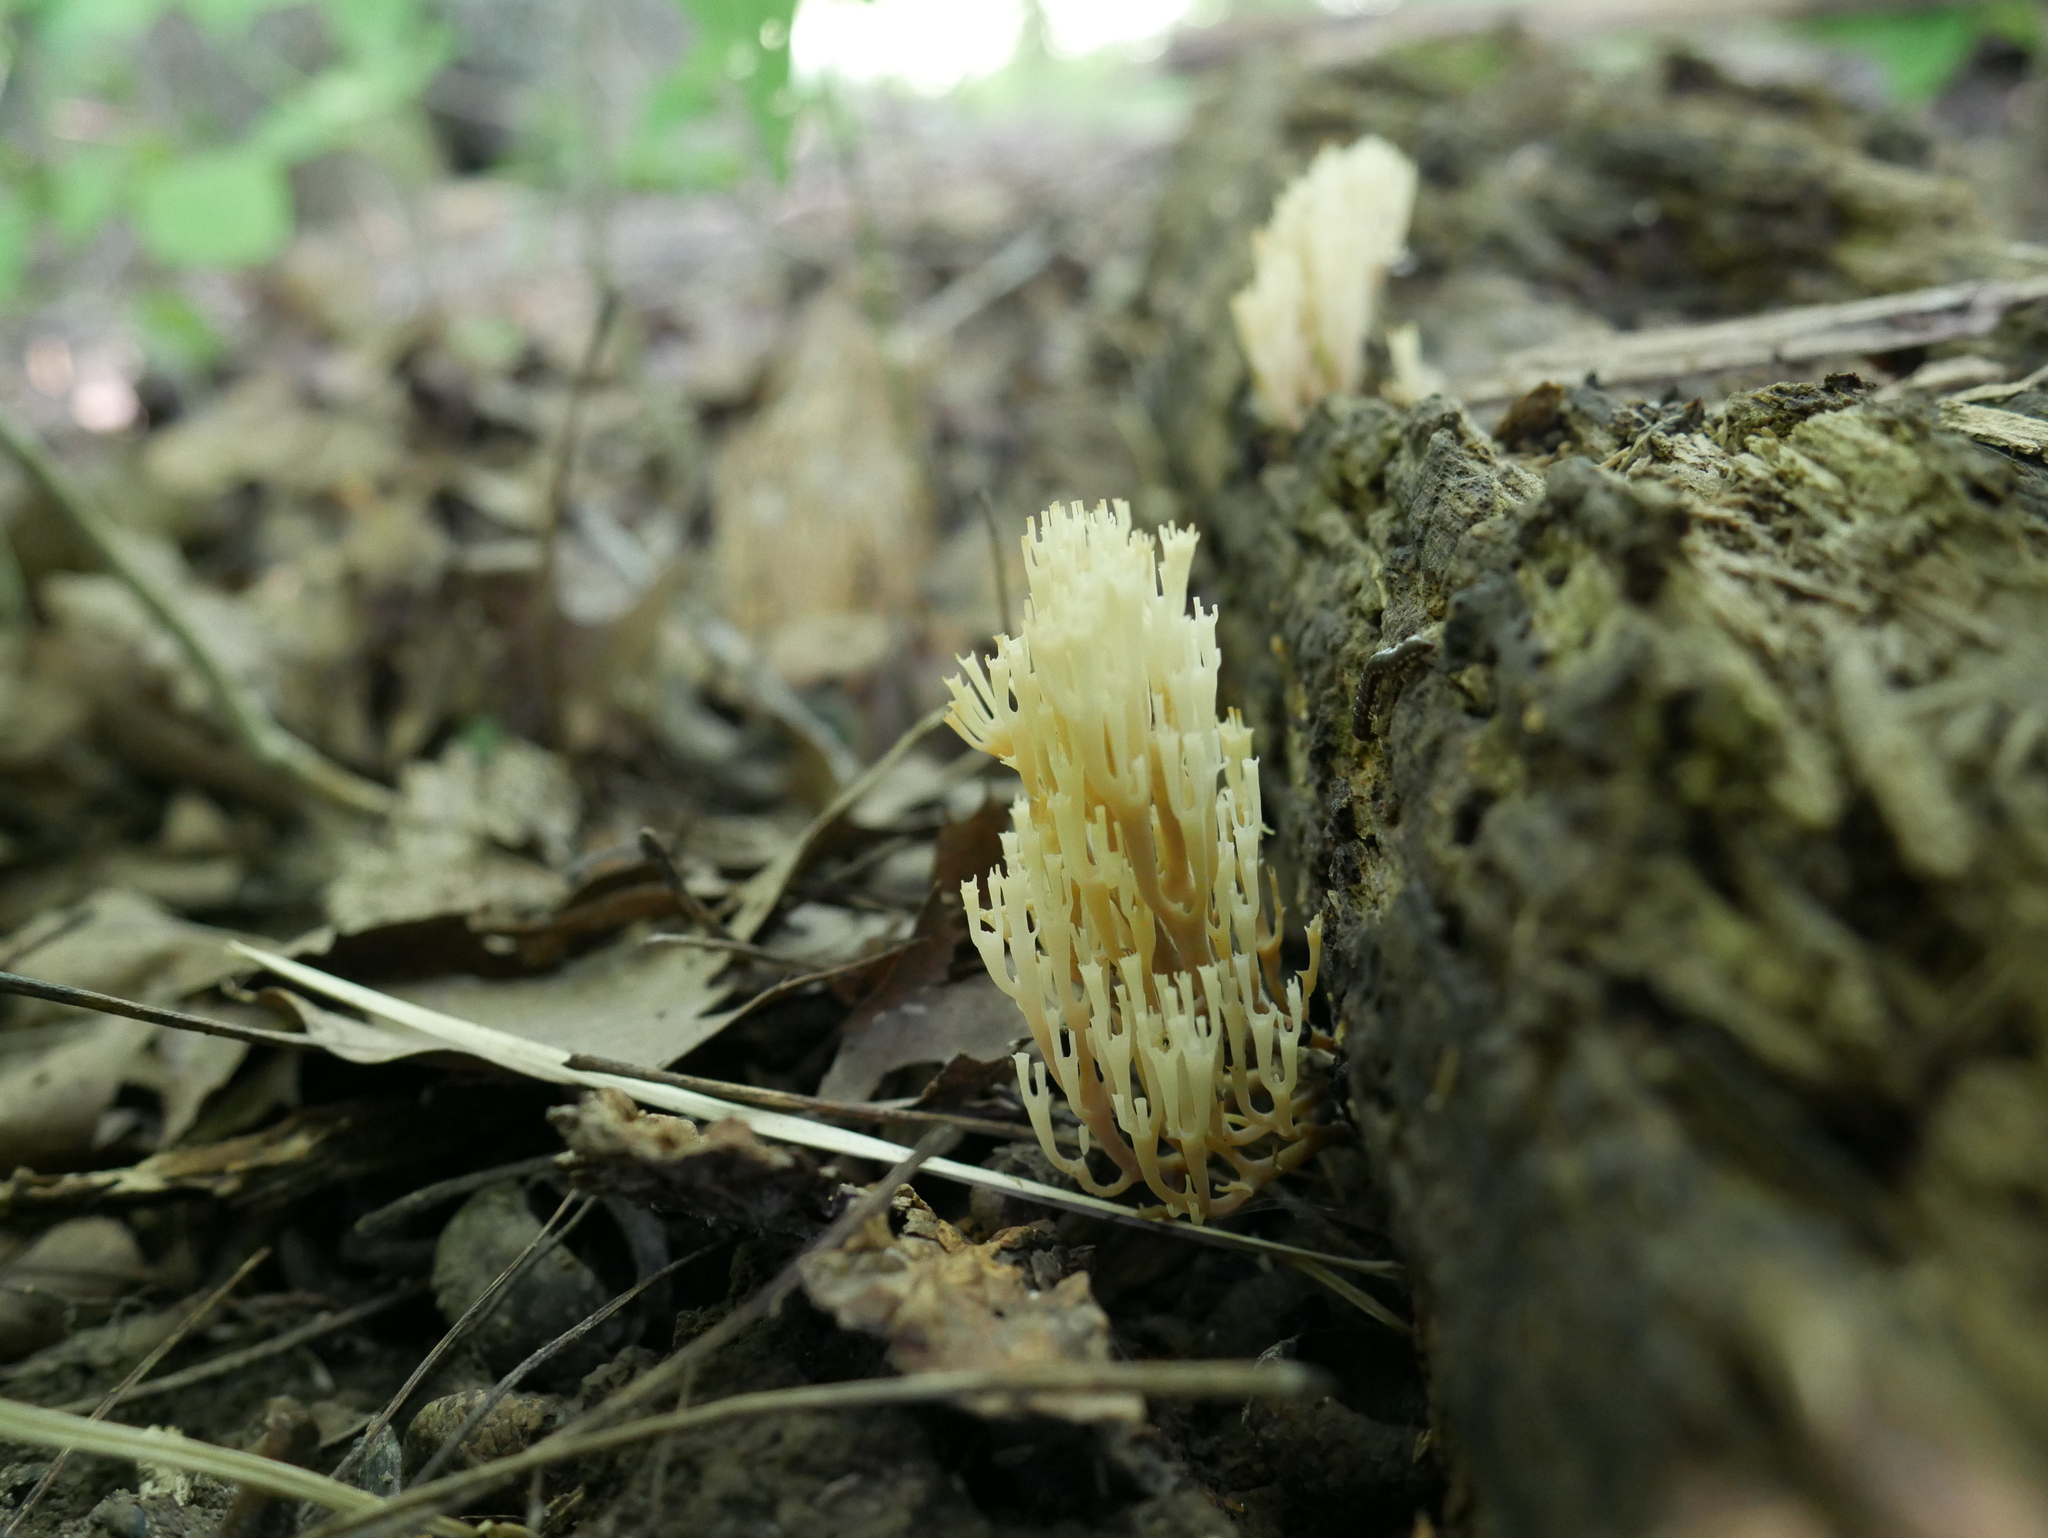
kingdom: Fungi
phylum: Basidiomycota
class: Agaricomycetes
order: Russulales
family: Auriscalpiaceae
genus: Artomyces
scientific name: Artomyces pyxidatus
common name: Crown-tipped coral fungus
